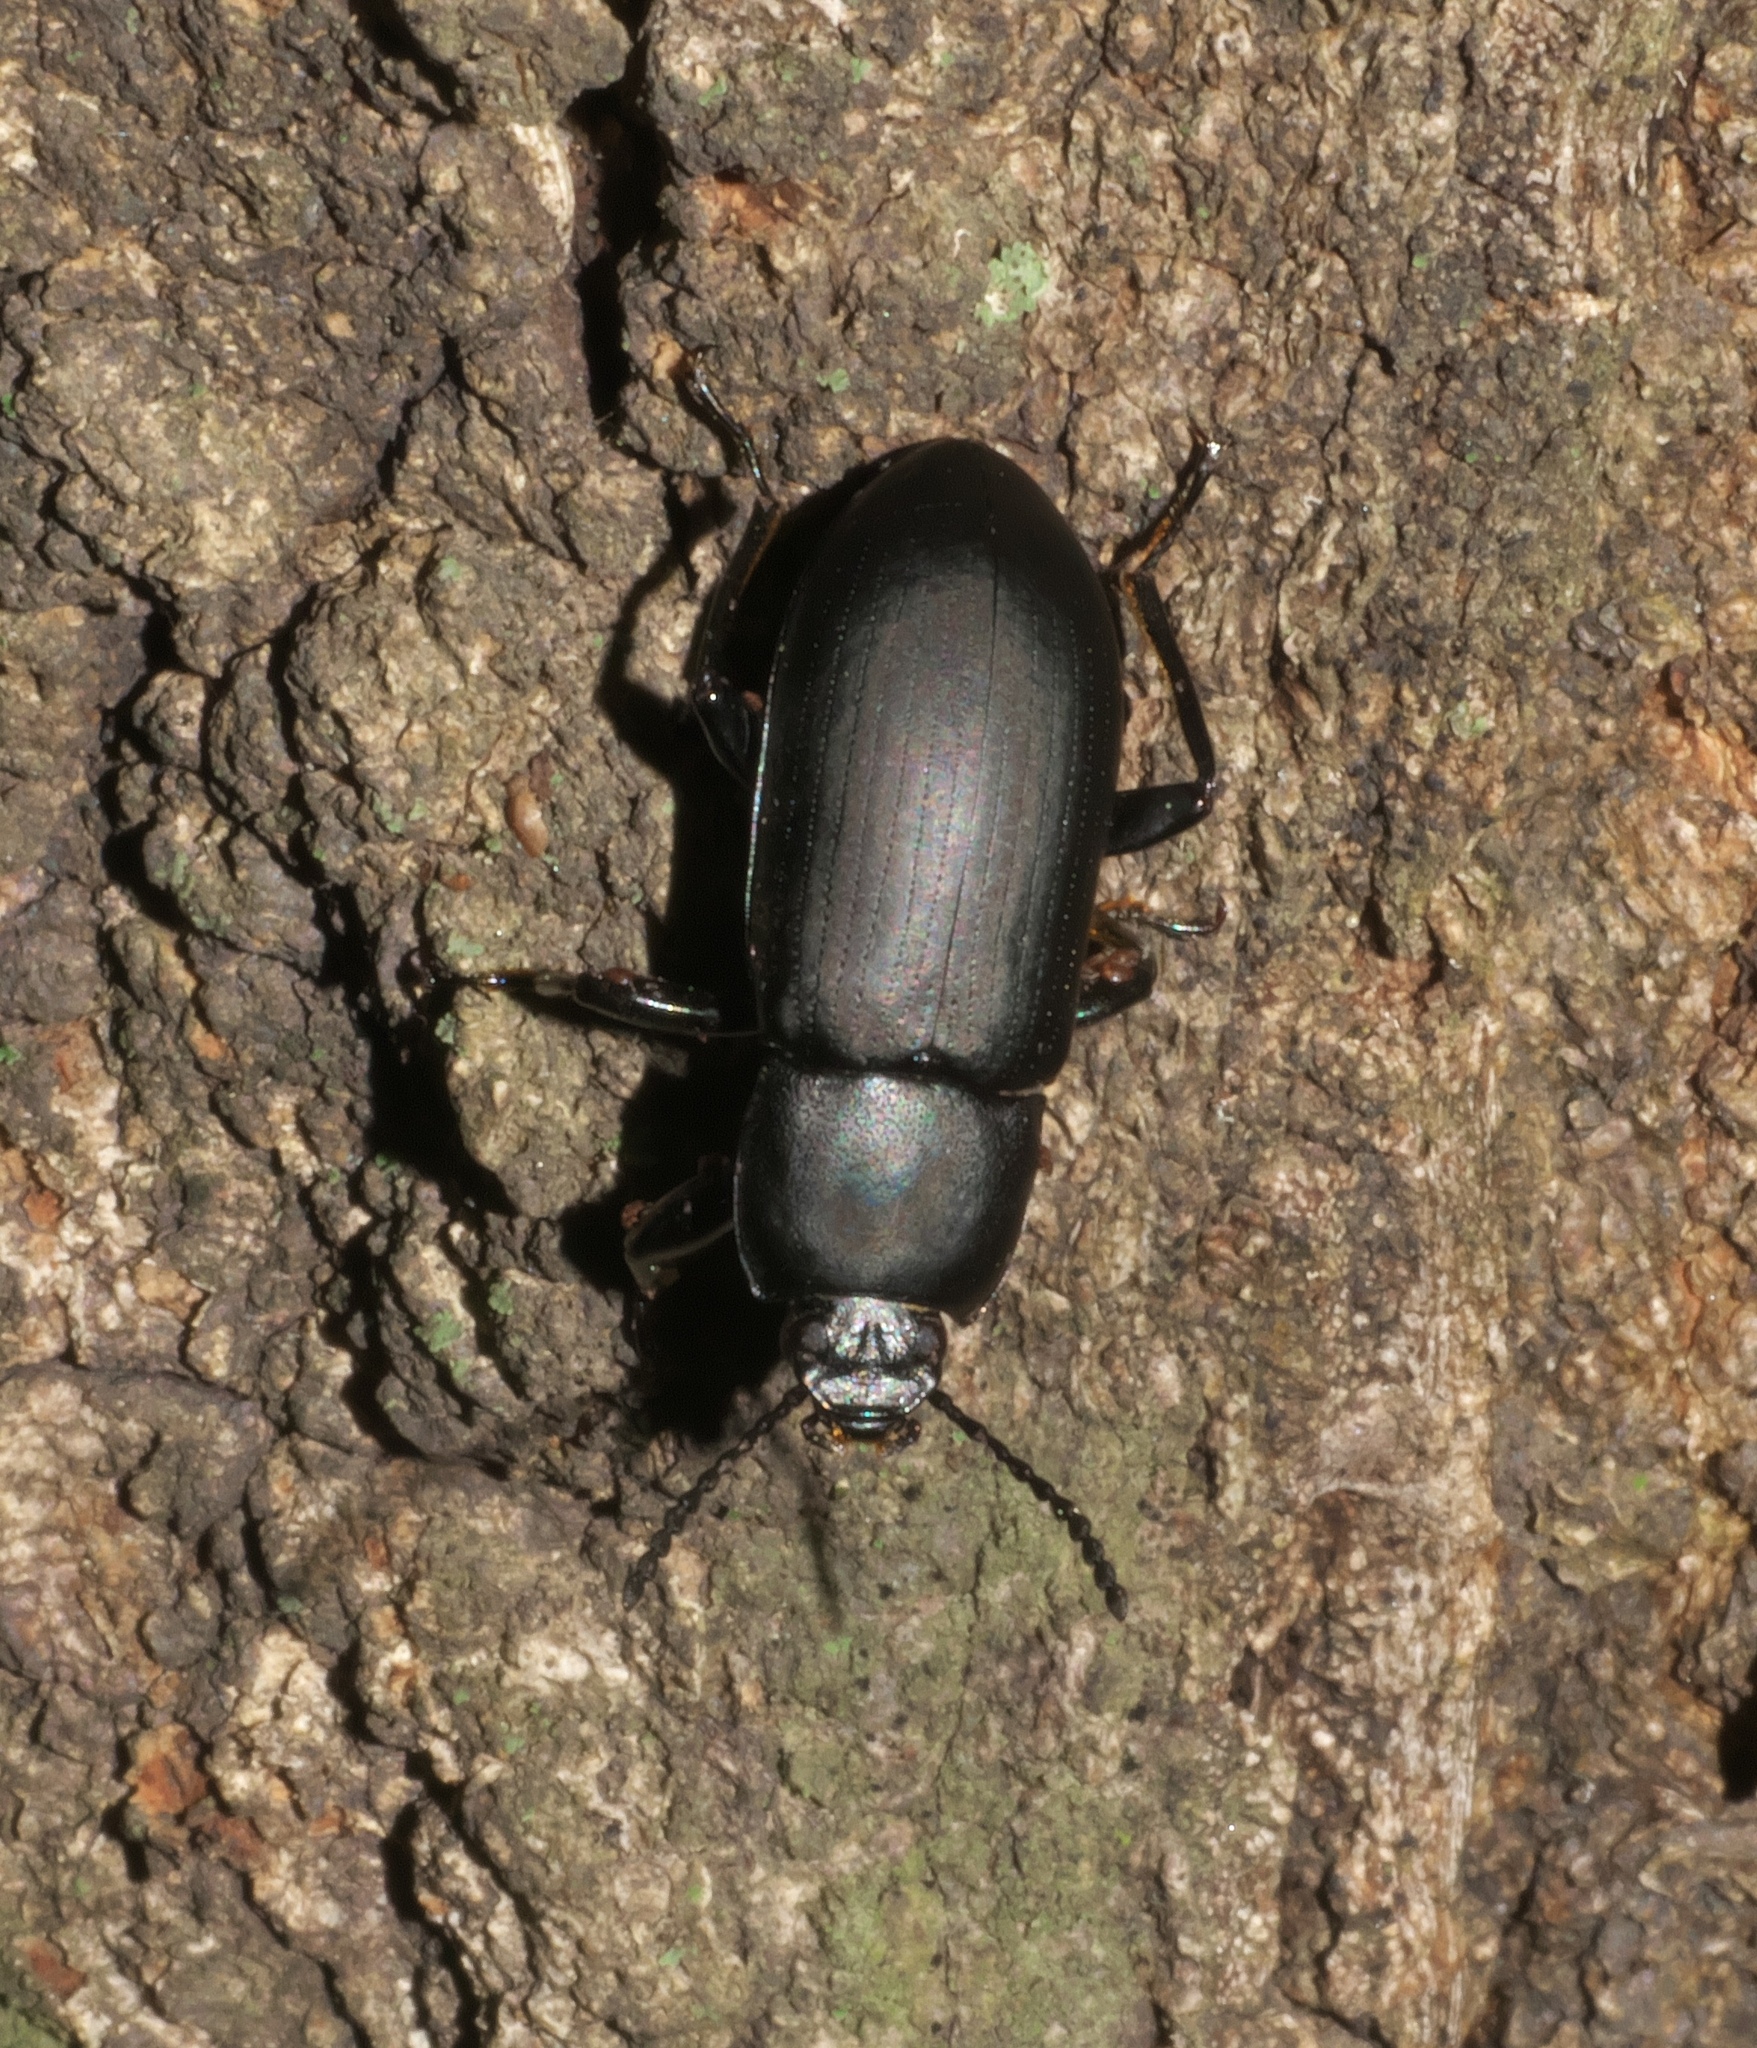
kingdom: Animalia
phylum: Arthropoda
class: Insecta
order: Coleoptera
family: Tenebrionidae
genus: Centronopus
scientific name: Centronopus opacus
